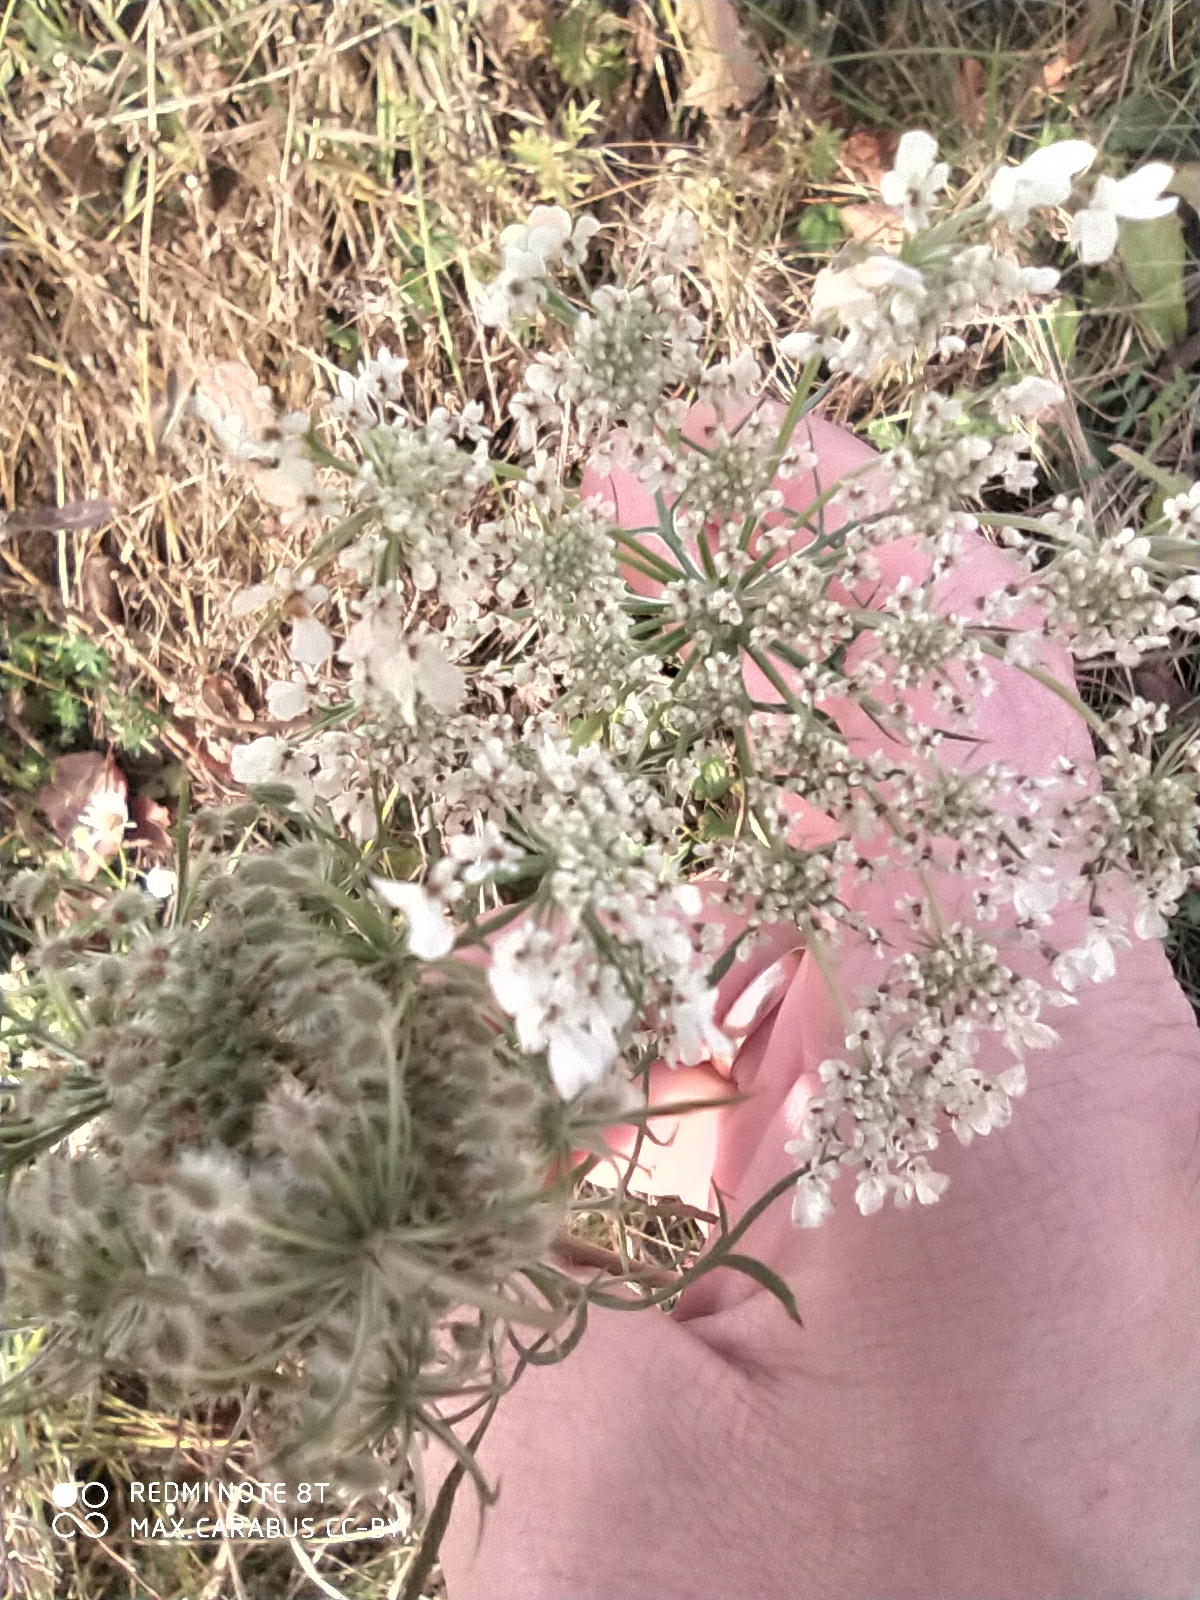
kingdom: Plantae
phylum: Tracheophyta
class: Magnoliopsida
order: Apiales
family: Apiaceae
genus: Daucus
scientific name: Daucus carota
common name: Wild carrot
